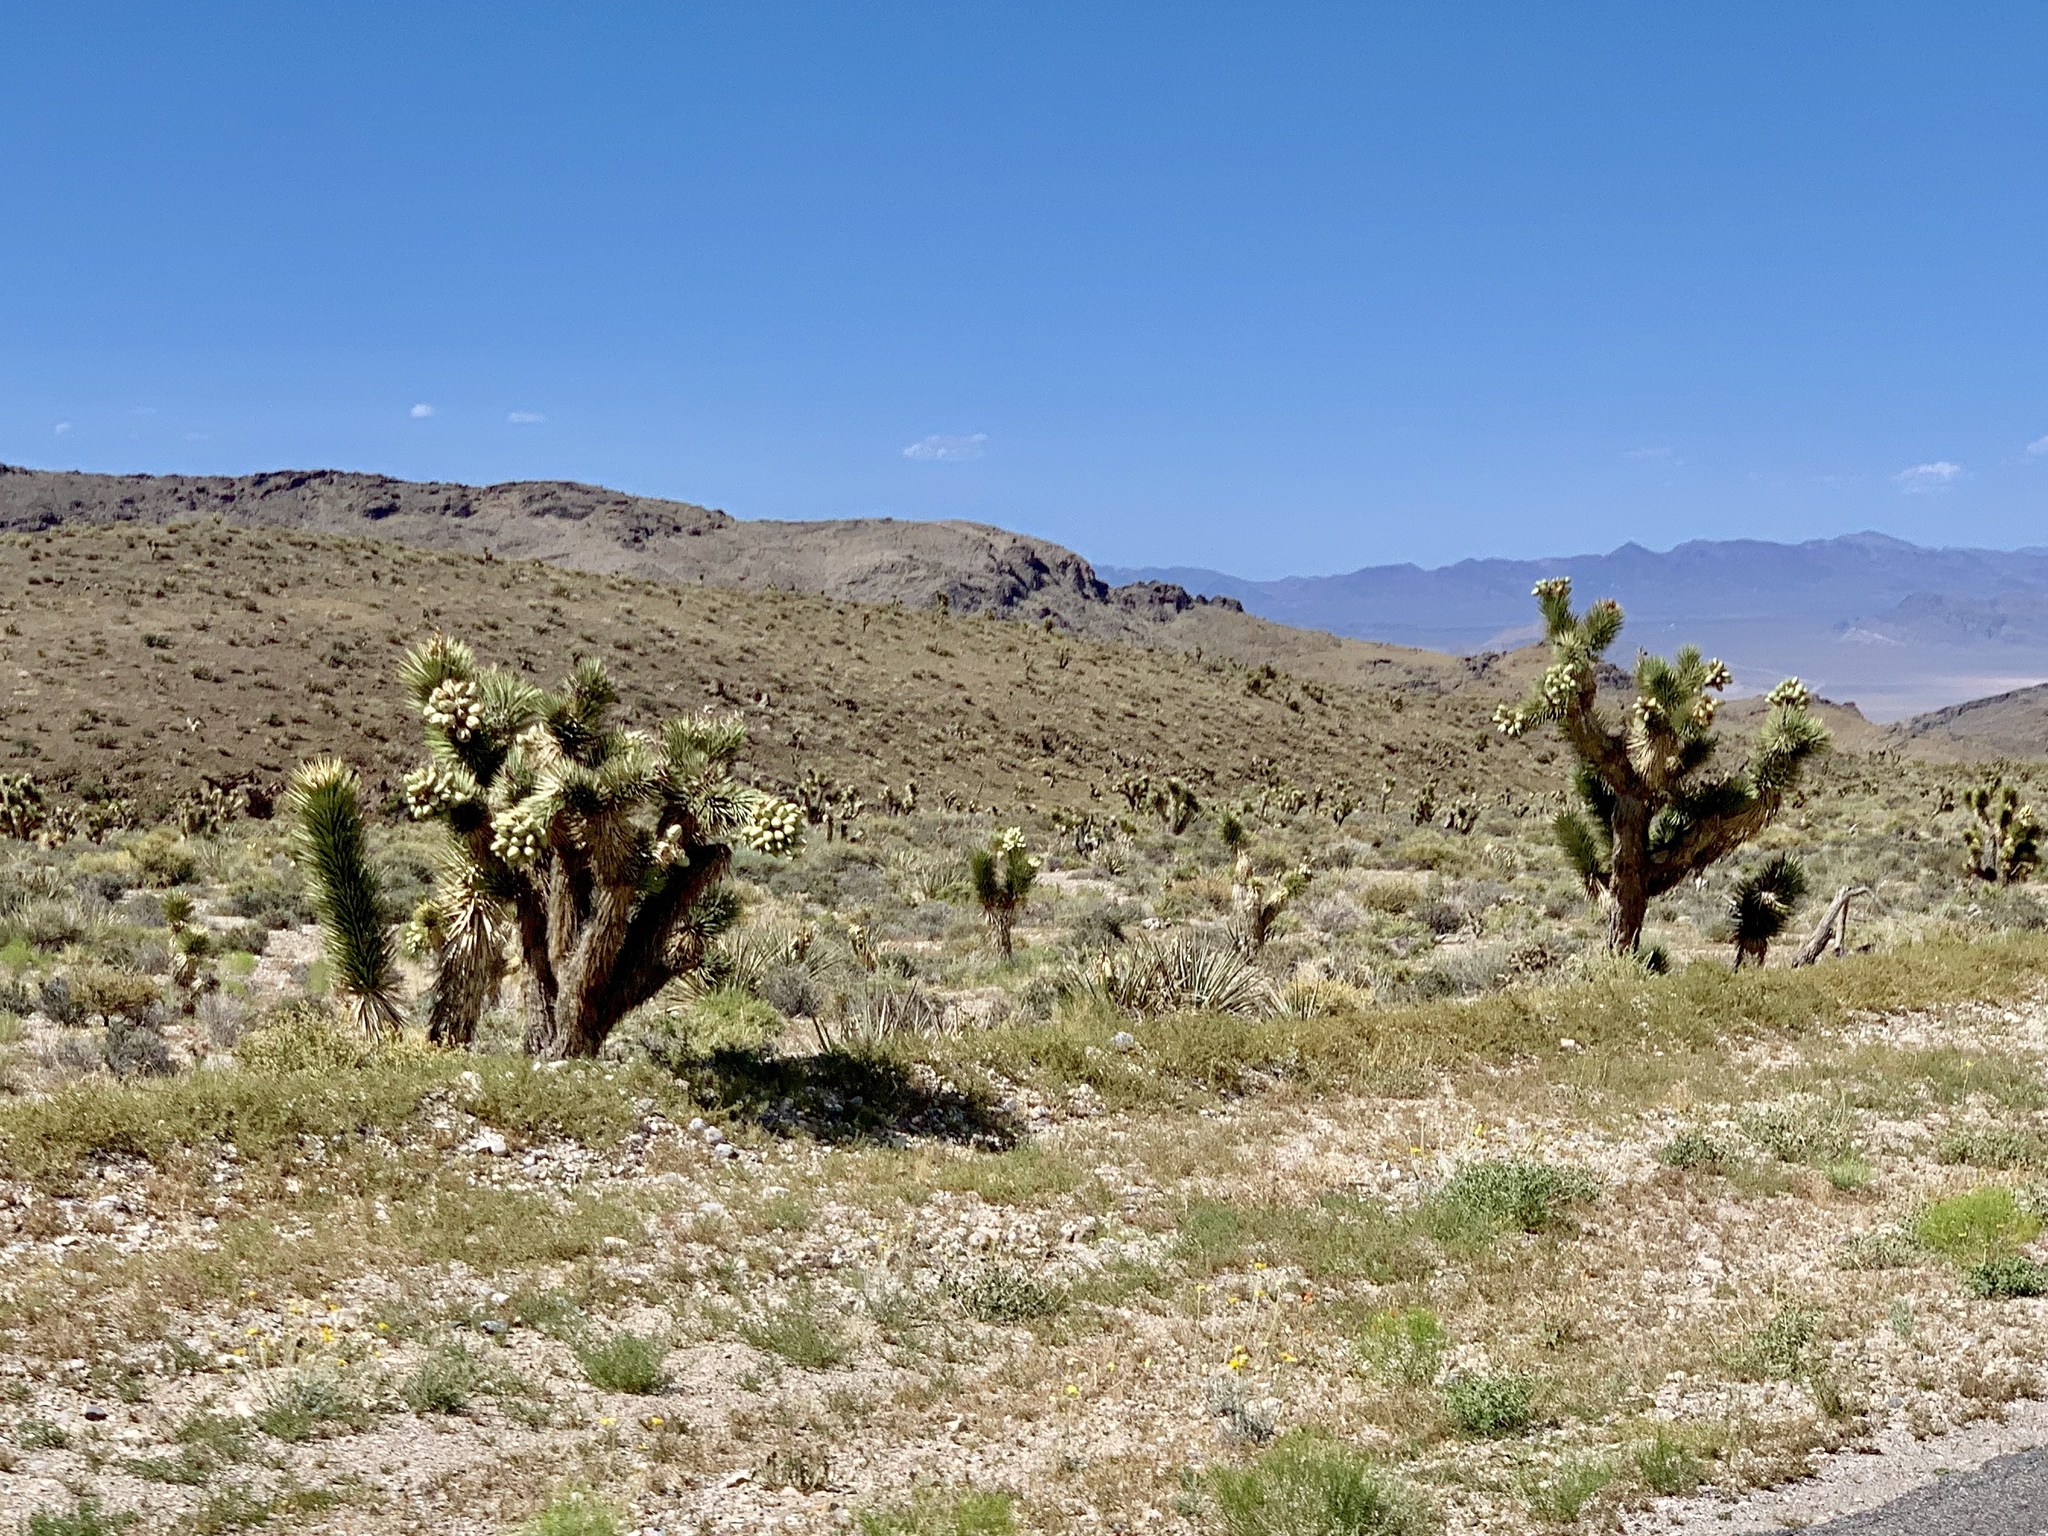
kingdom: Plantae
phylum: Tracheophyta
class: Liliopsida
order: Asparagales
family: Asparagaceae
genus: Yucca
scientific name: Yucca brevifolia
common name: Joshua tree
